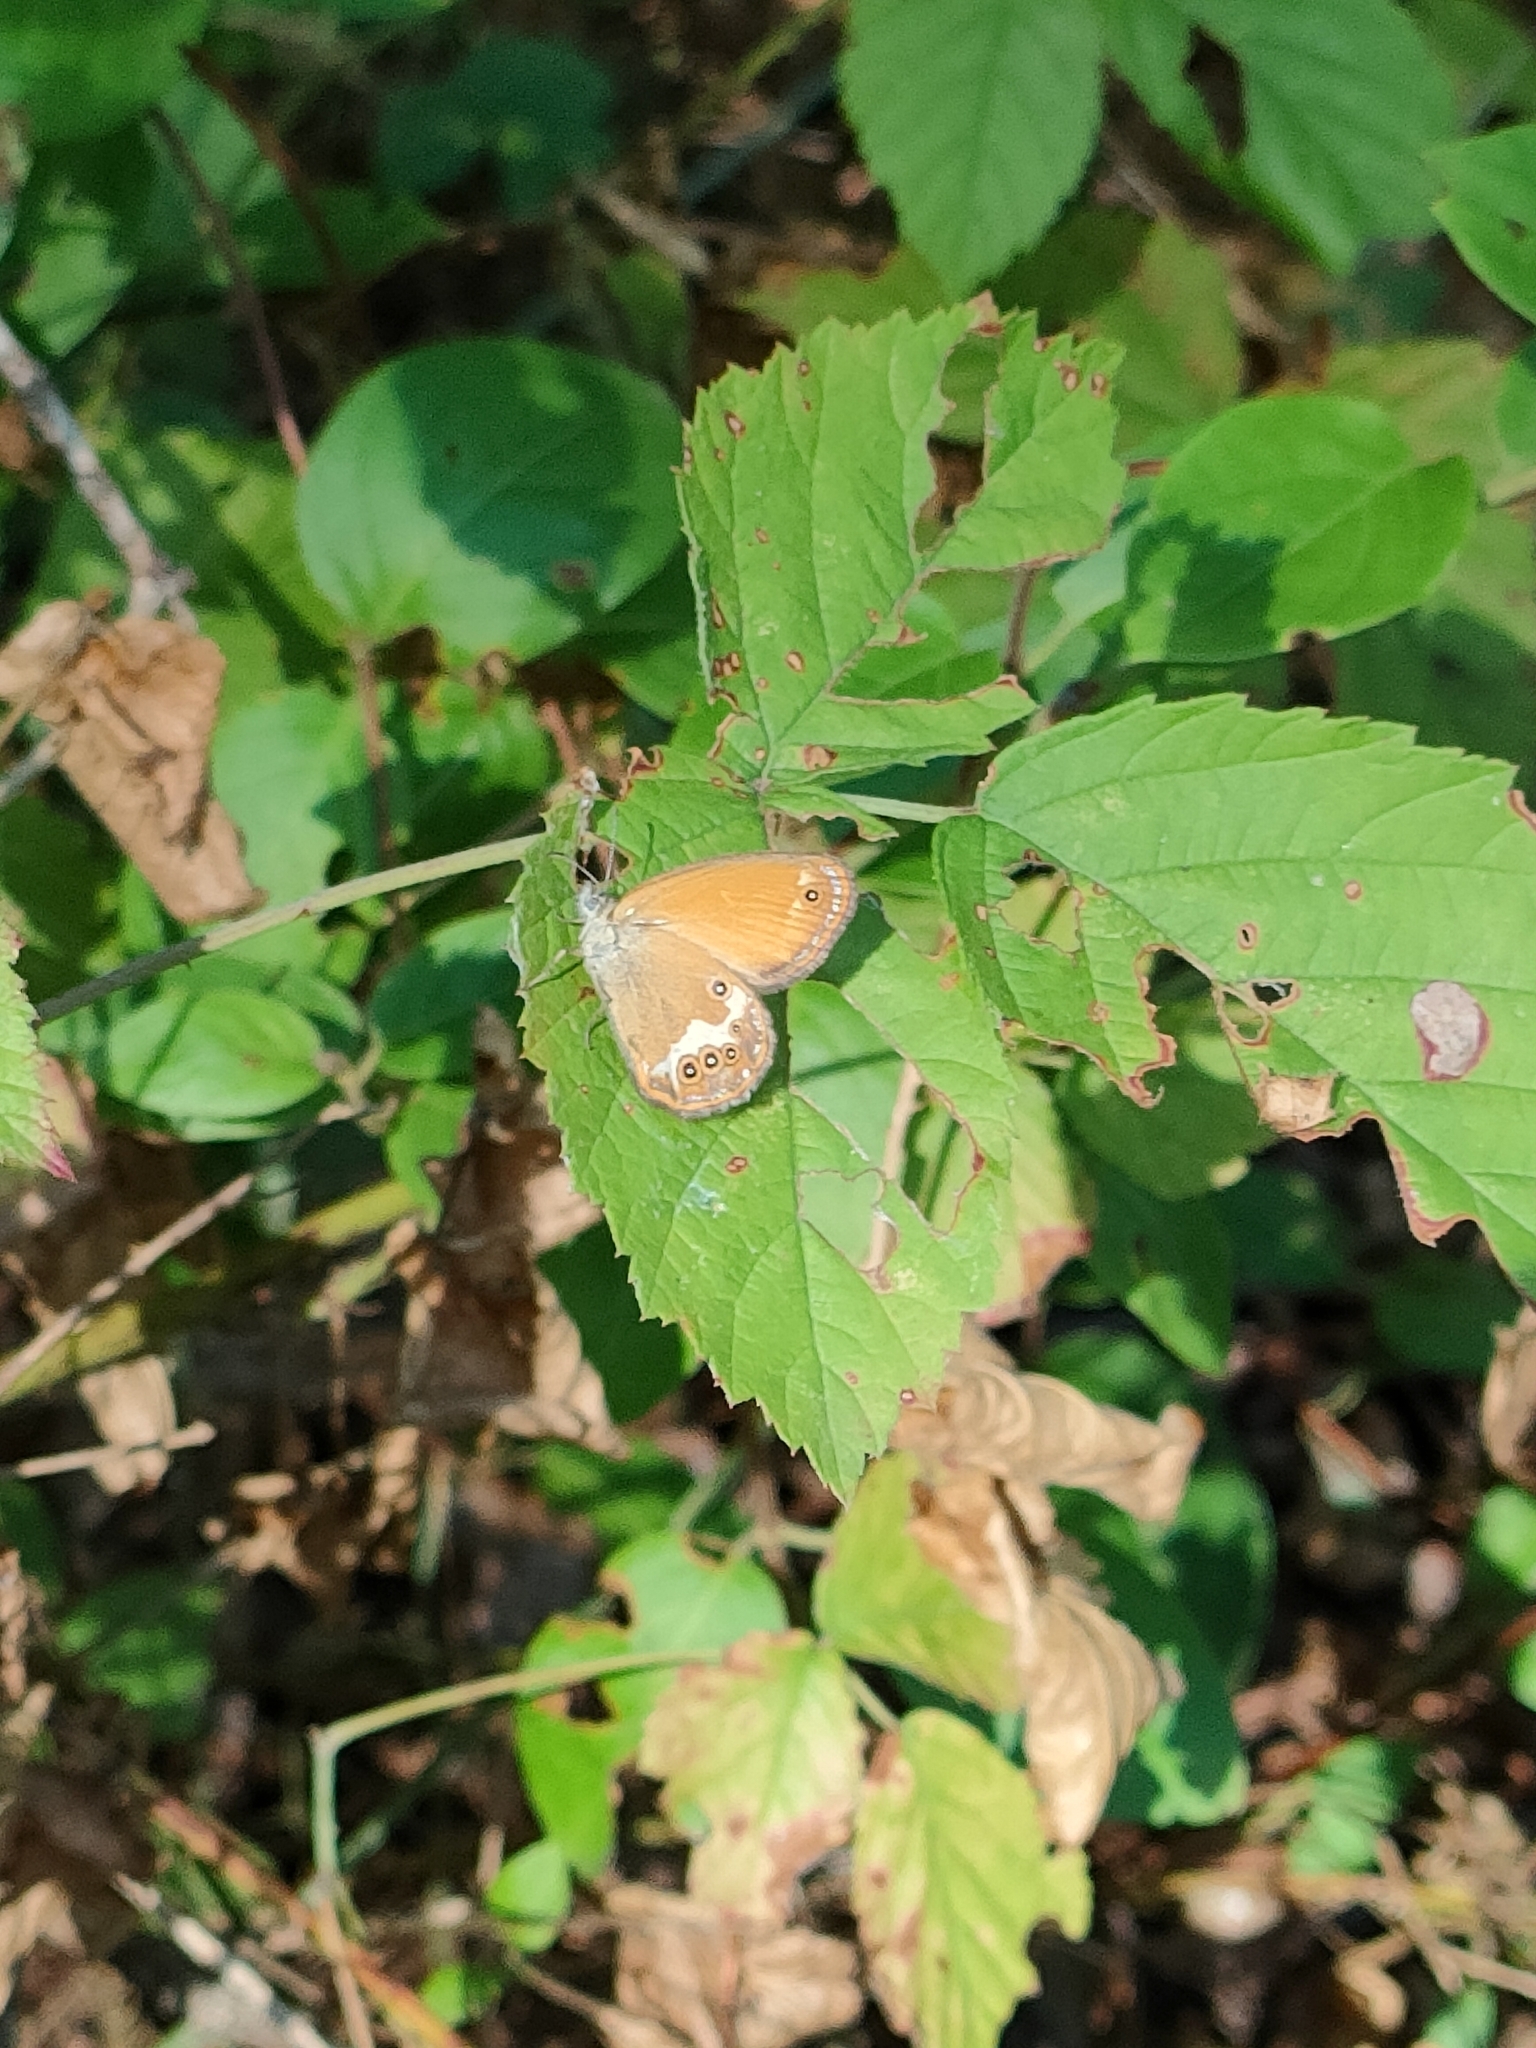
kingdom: Animalia
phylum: Arthropoda
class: Insecta
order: Lepidoptera
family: Nymphalidae
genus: Coenonympha
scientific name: Coenonympha arcania
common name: Pearly heath
